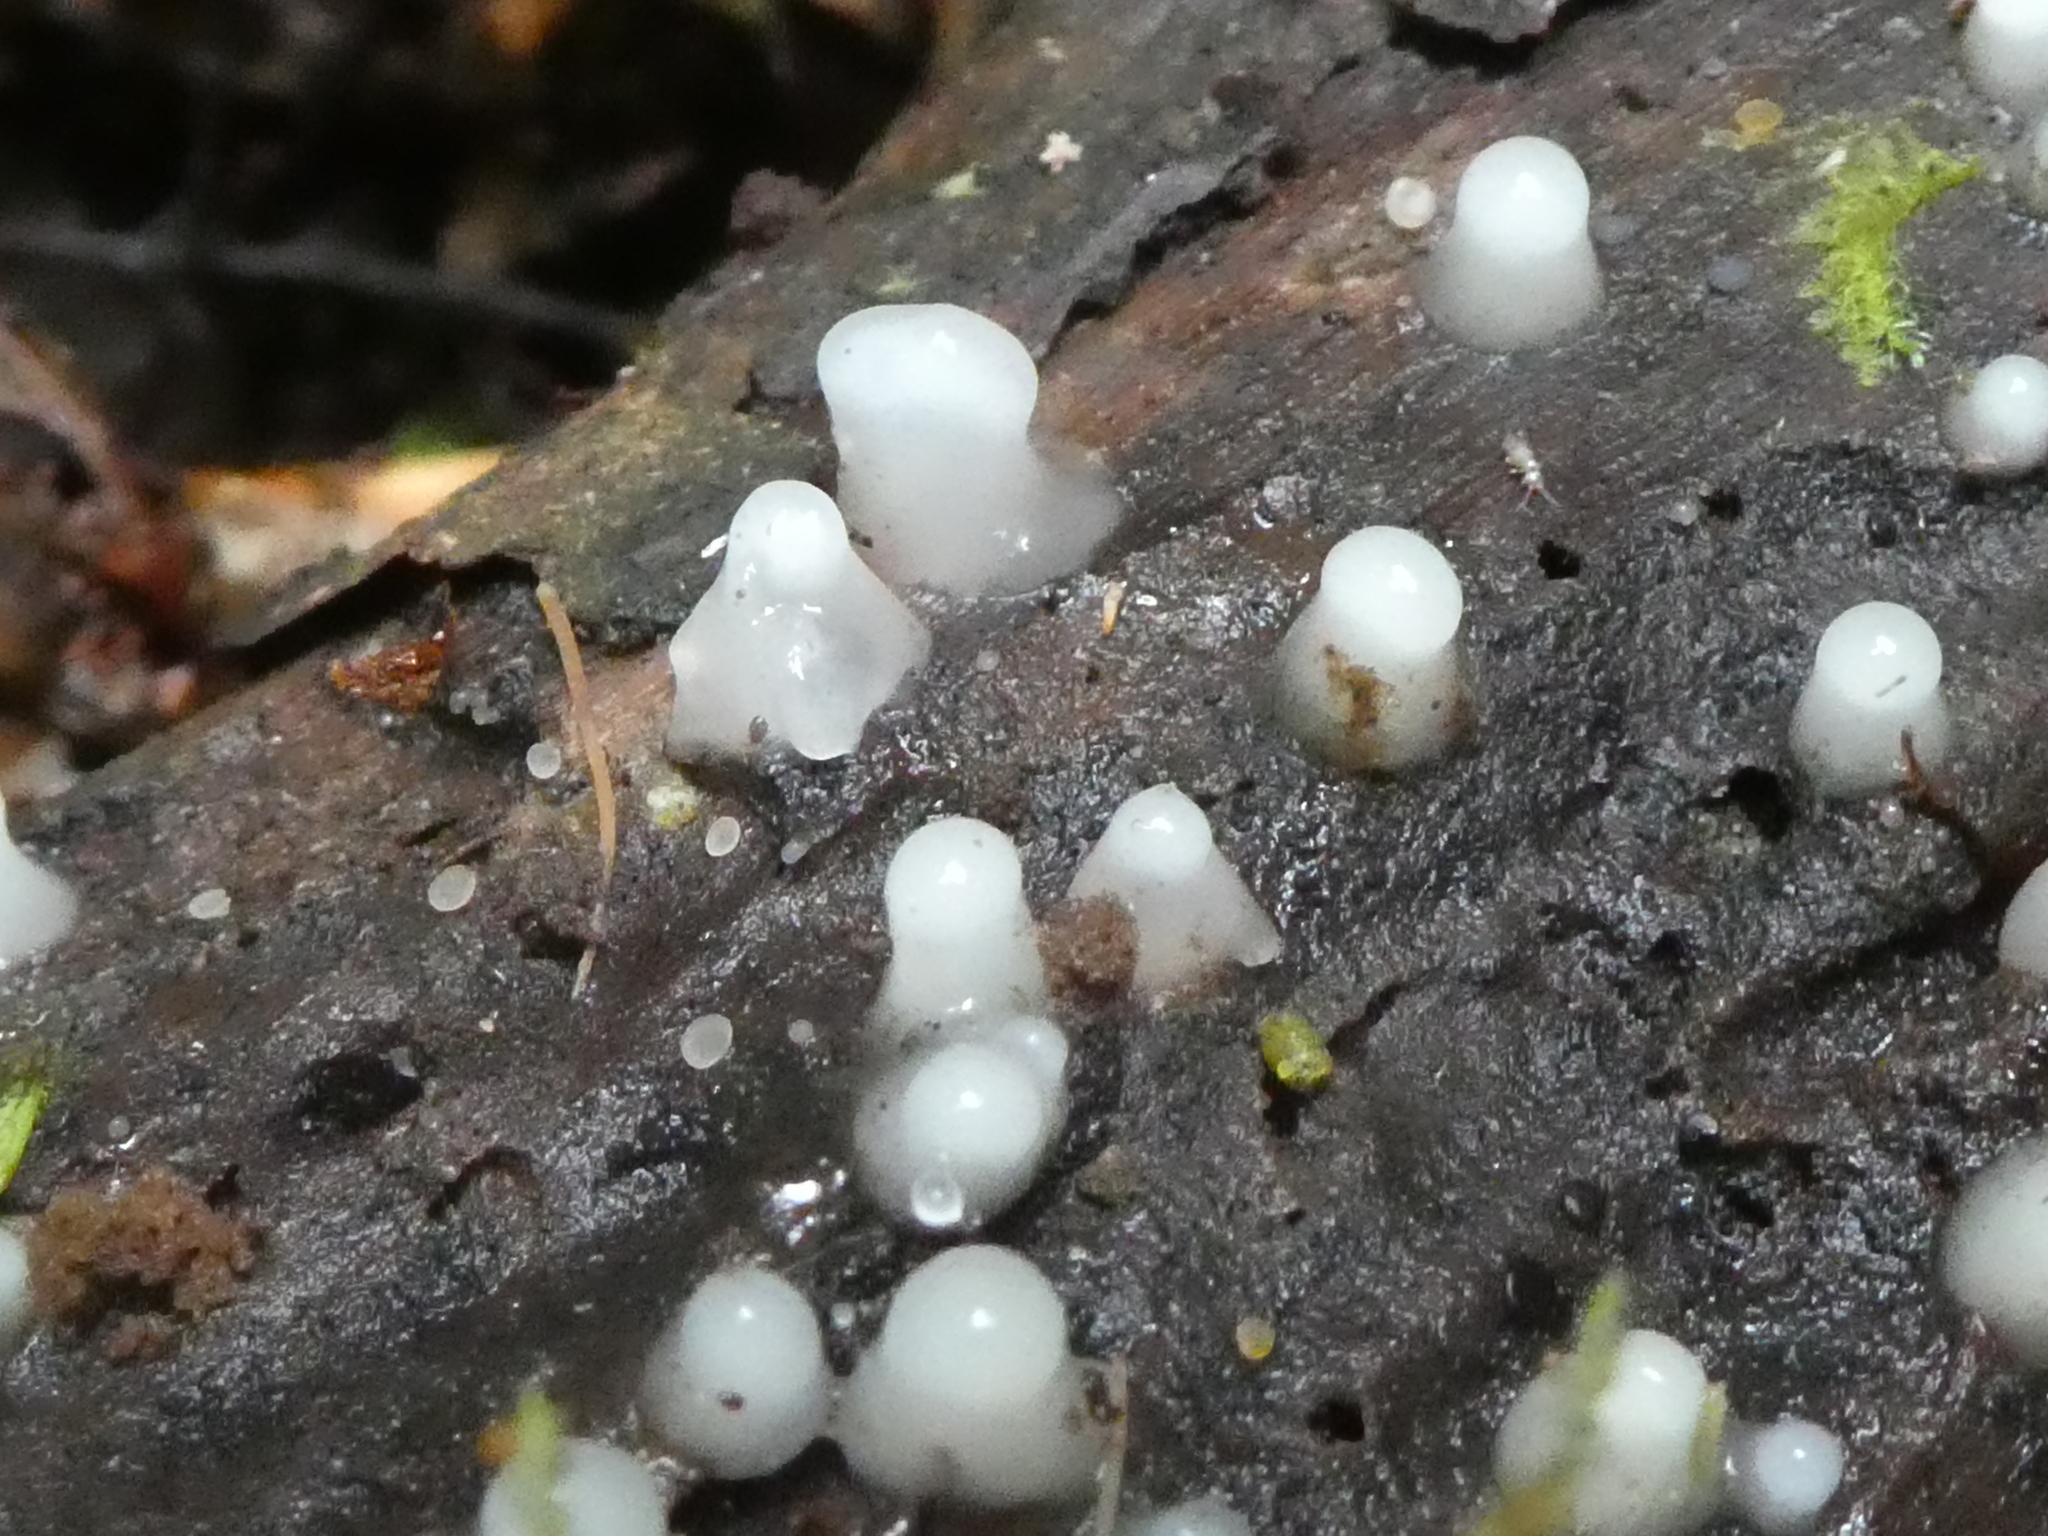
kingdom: Fungi
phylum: Basidiomycota
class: Atractiellomycetes
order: Atractiellales
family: Phleogenaceae
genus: Helicogloea
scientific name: Helicogloea compressa
